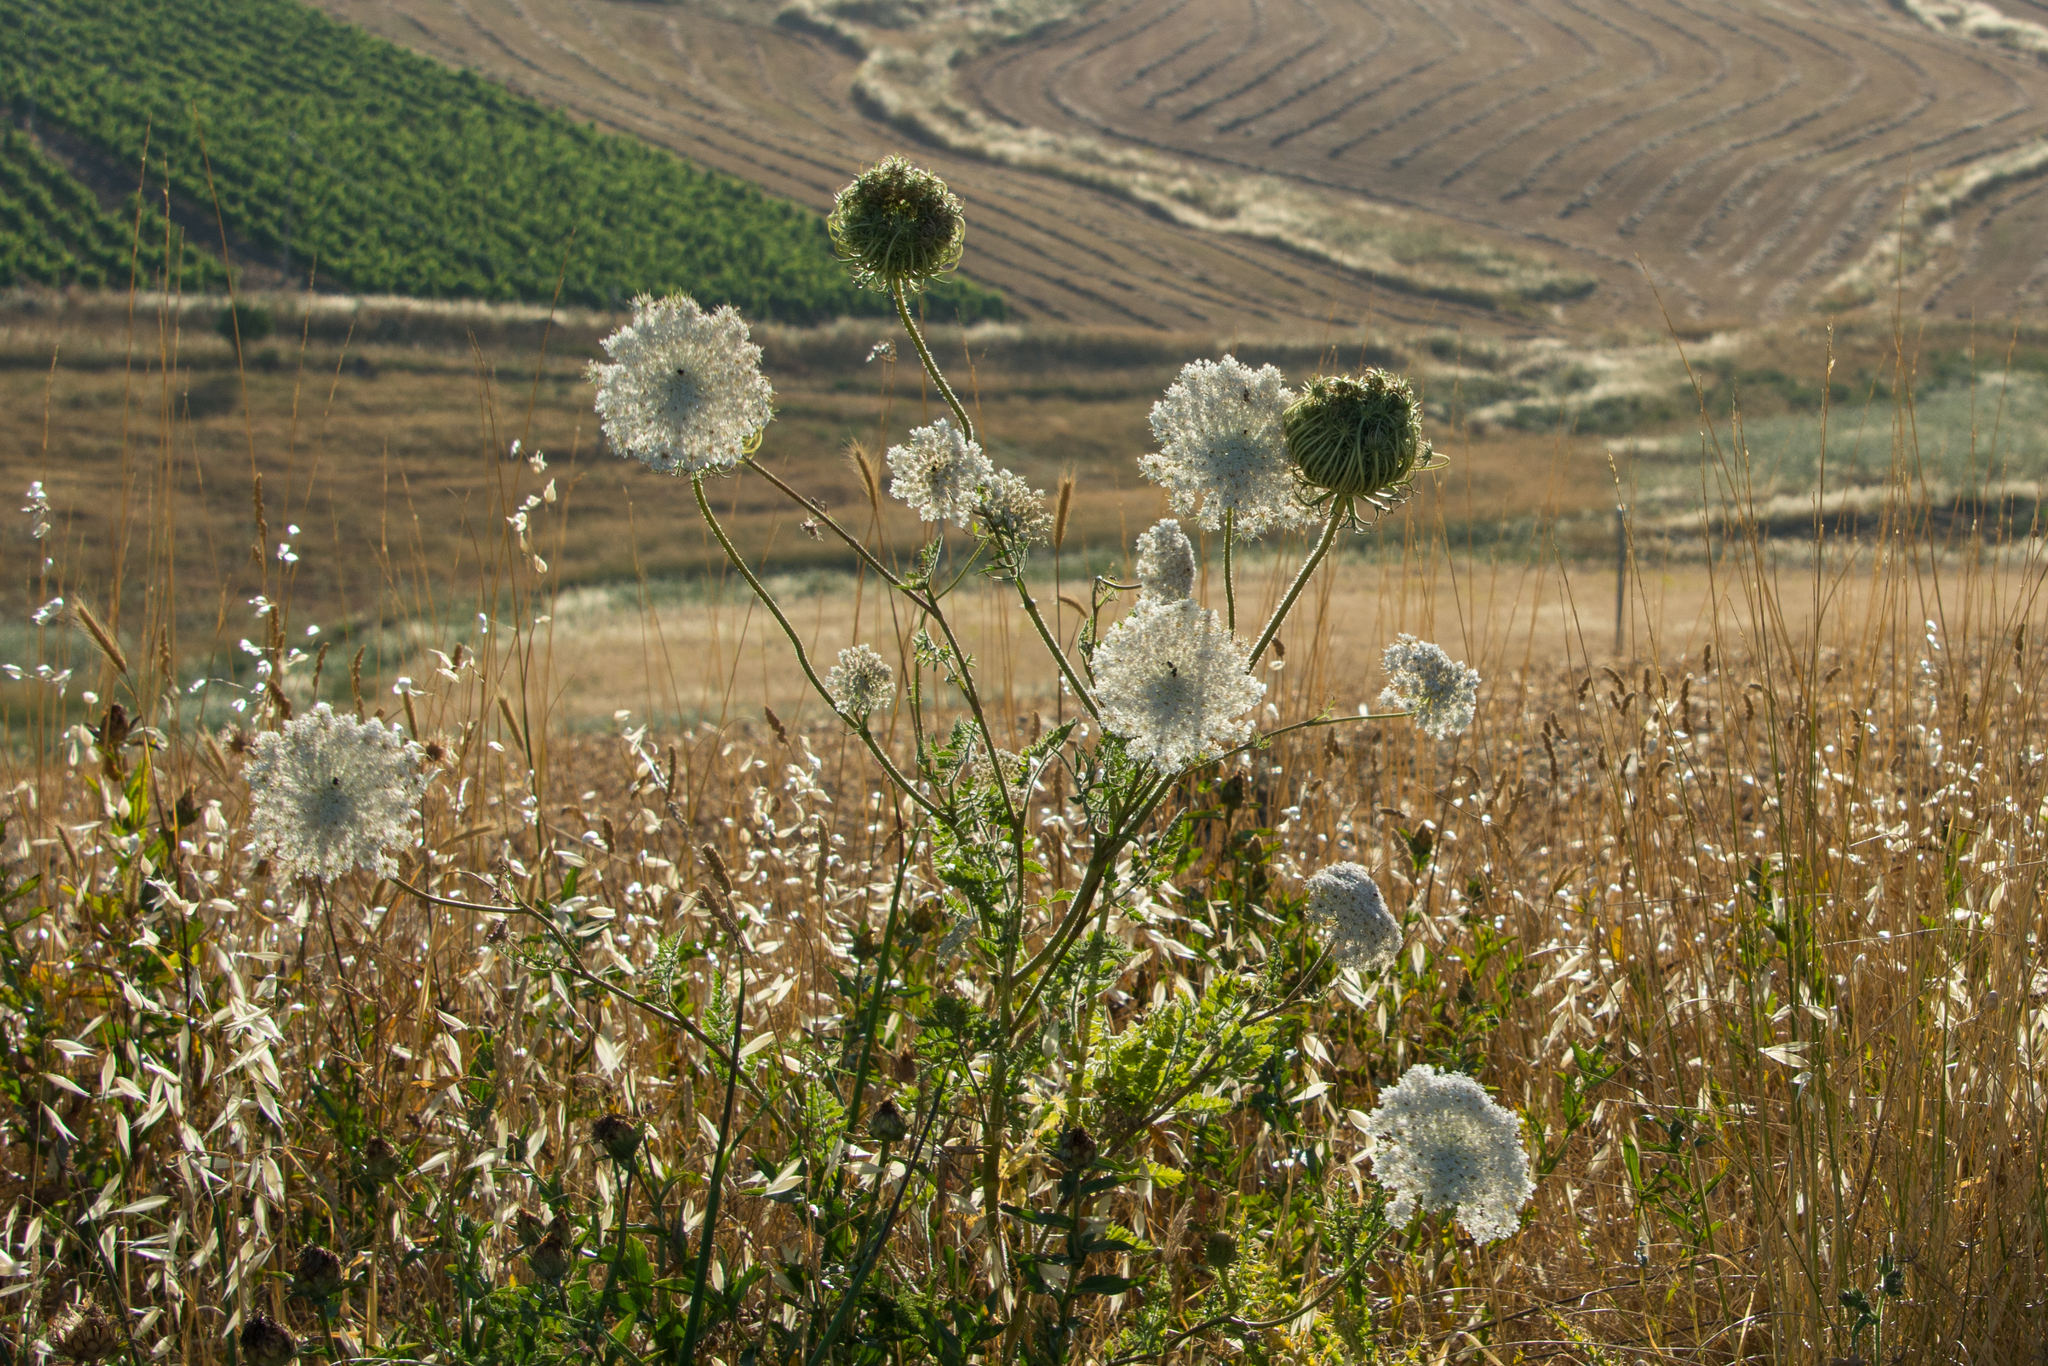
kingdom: Plantae
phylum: Tracheophyta
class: Magnoliopsida
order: Apiales
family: Apiaceae
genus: Daucus
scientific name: Daucus carota
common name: Wild carrot
